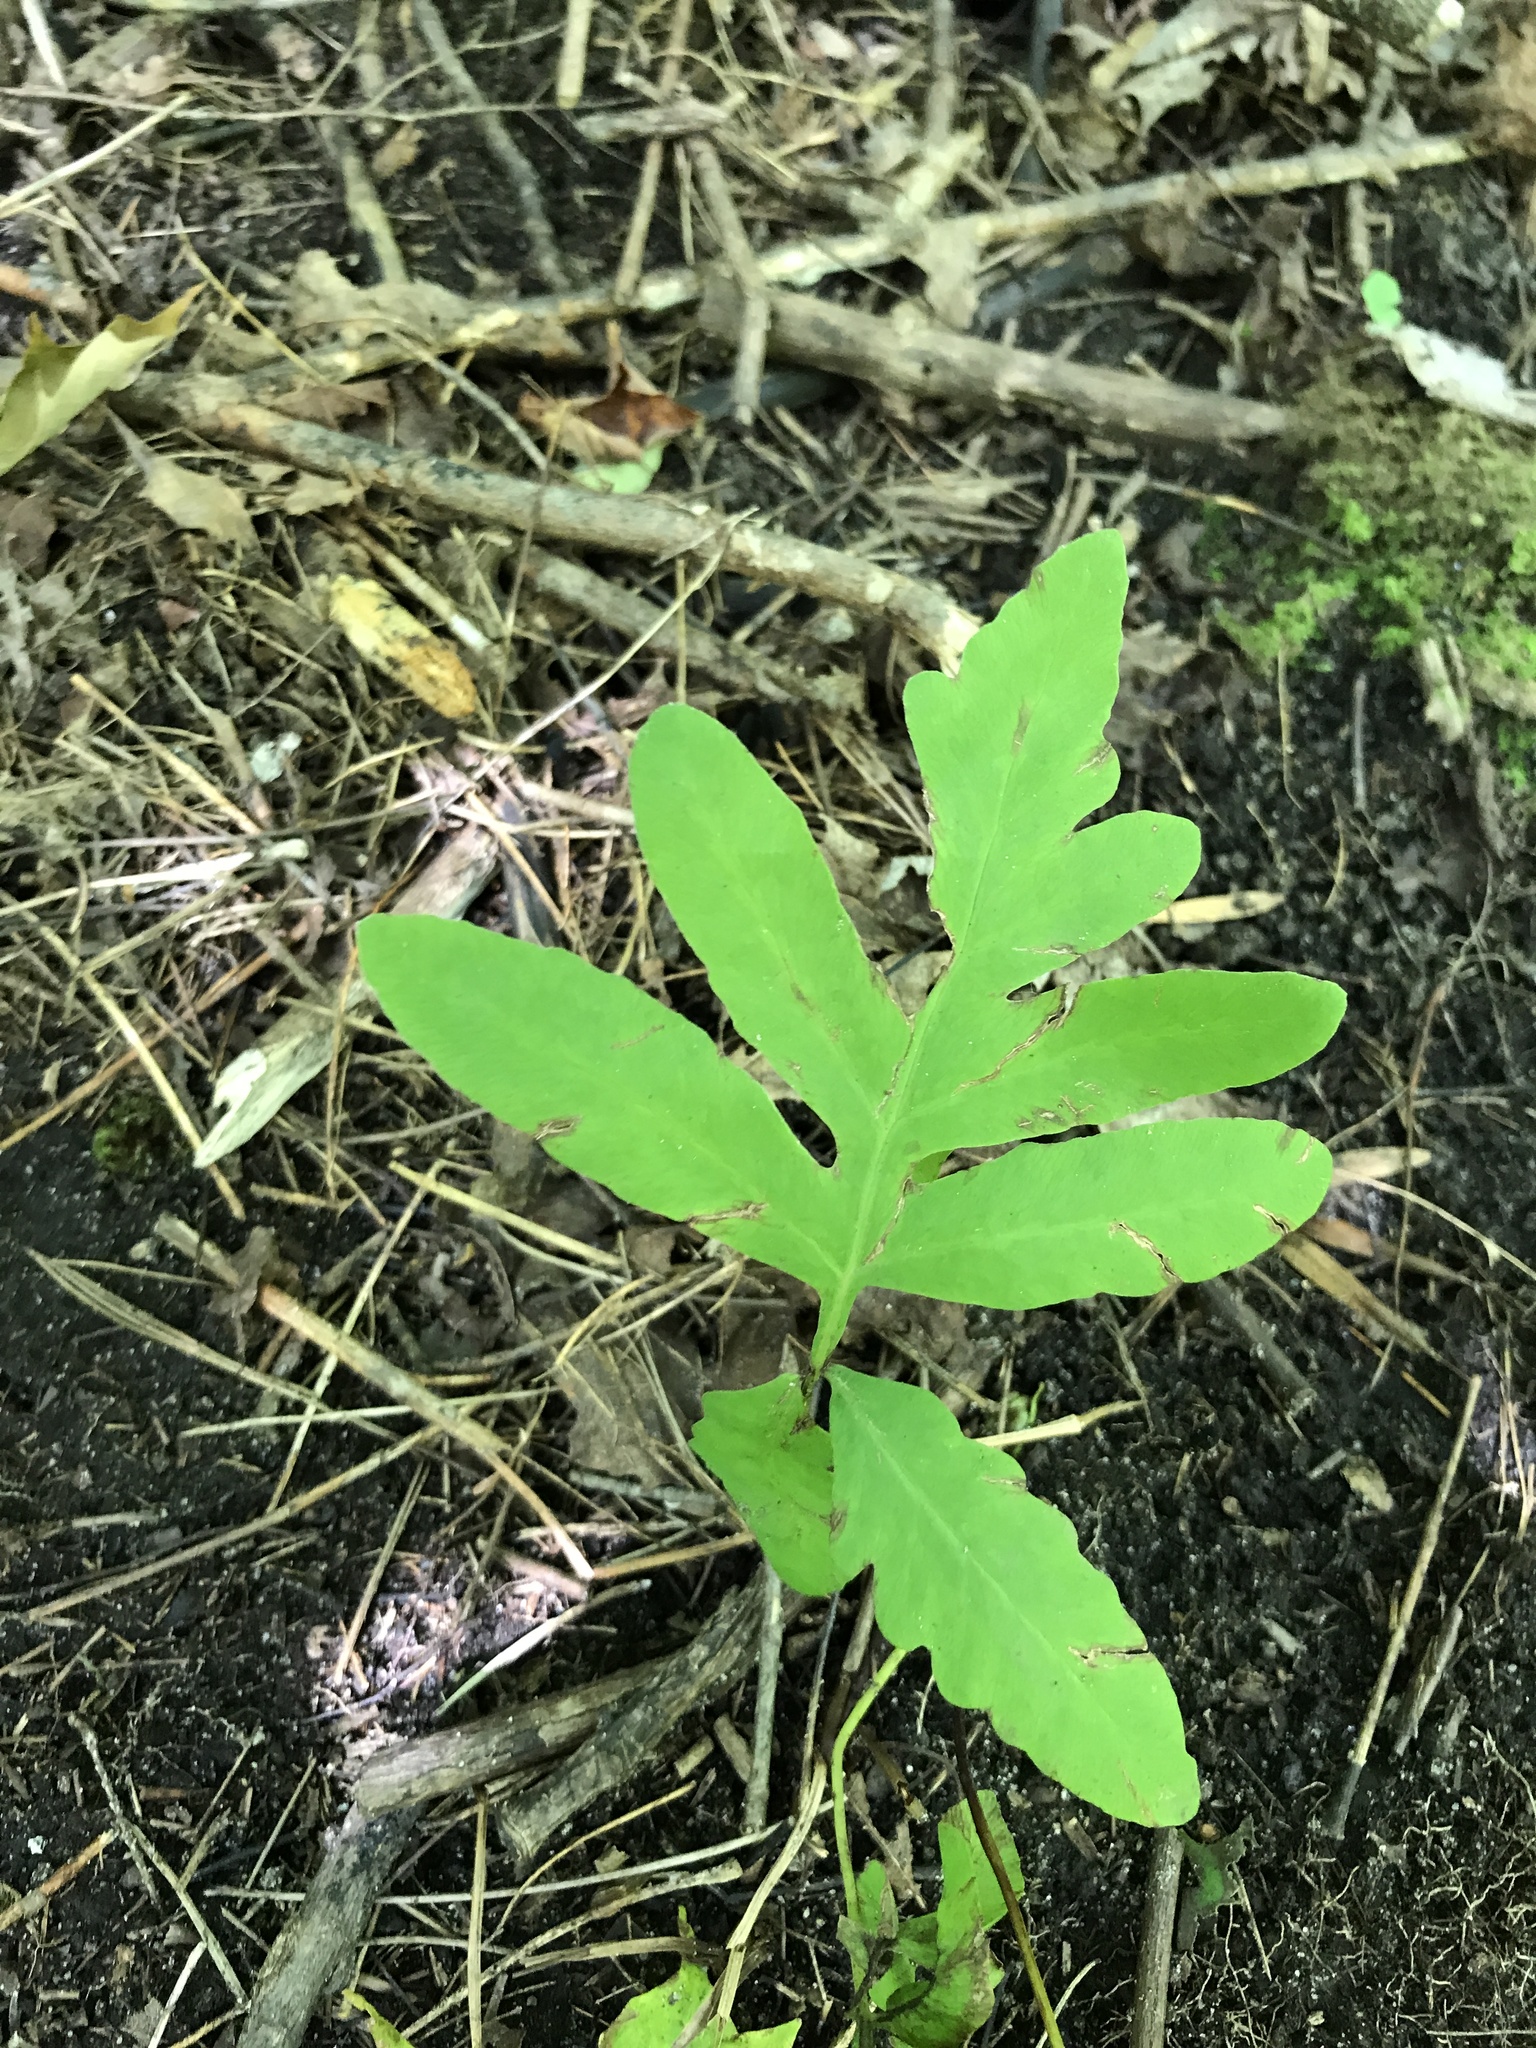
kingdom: Plantae
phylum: Tracheophyta
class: Polypodiopsida
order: Polypodiales
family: Onocleaceae
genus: Onoclea
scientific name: Onoclea sensibilis
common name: Sensitive fern
